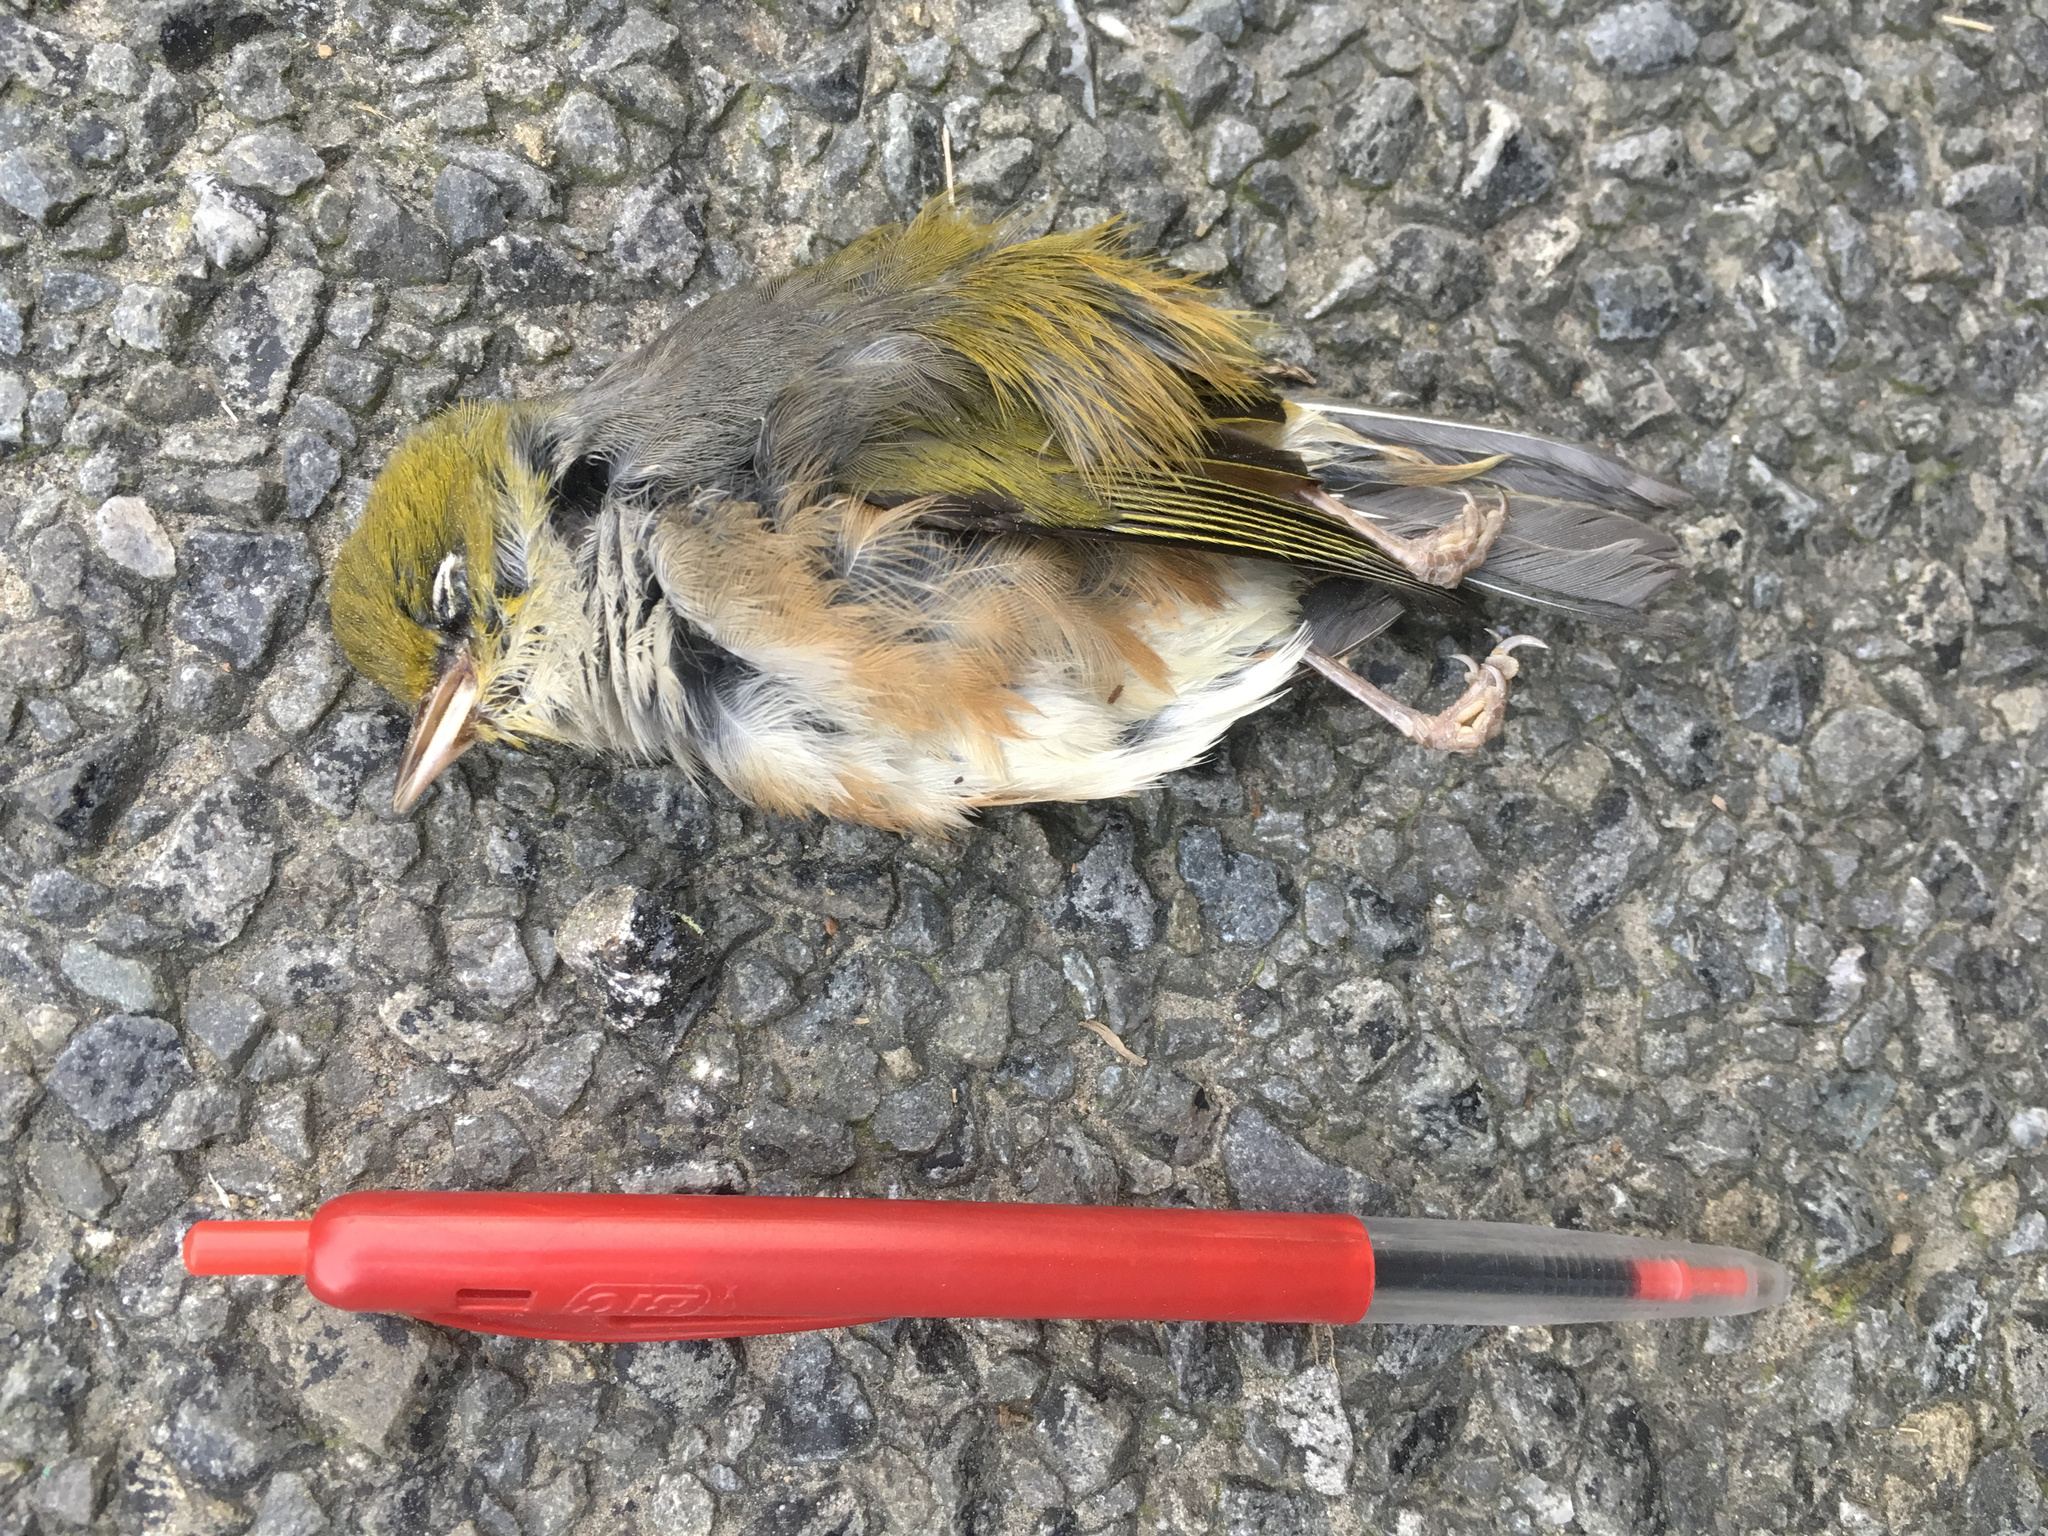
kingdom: Animalia
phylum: Chordata
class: Aves
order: Passeriformes
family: Zosteropidae
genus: Zosterops
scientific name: Zosterops lateralis
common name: Silvereye
